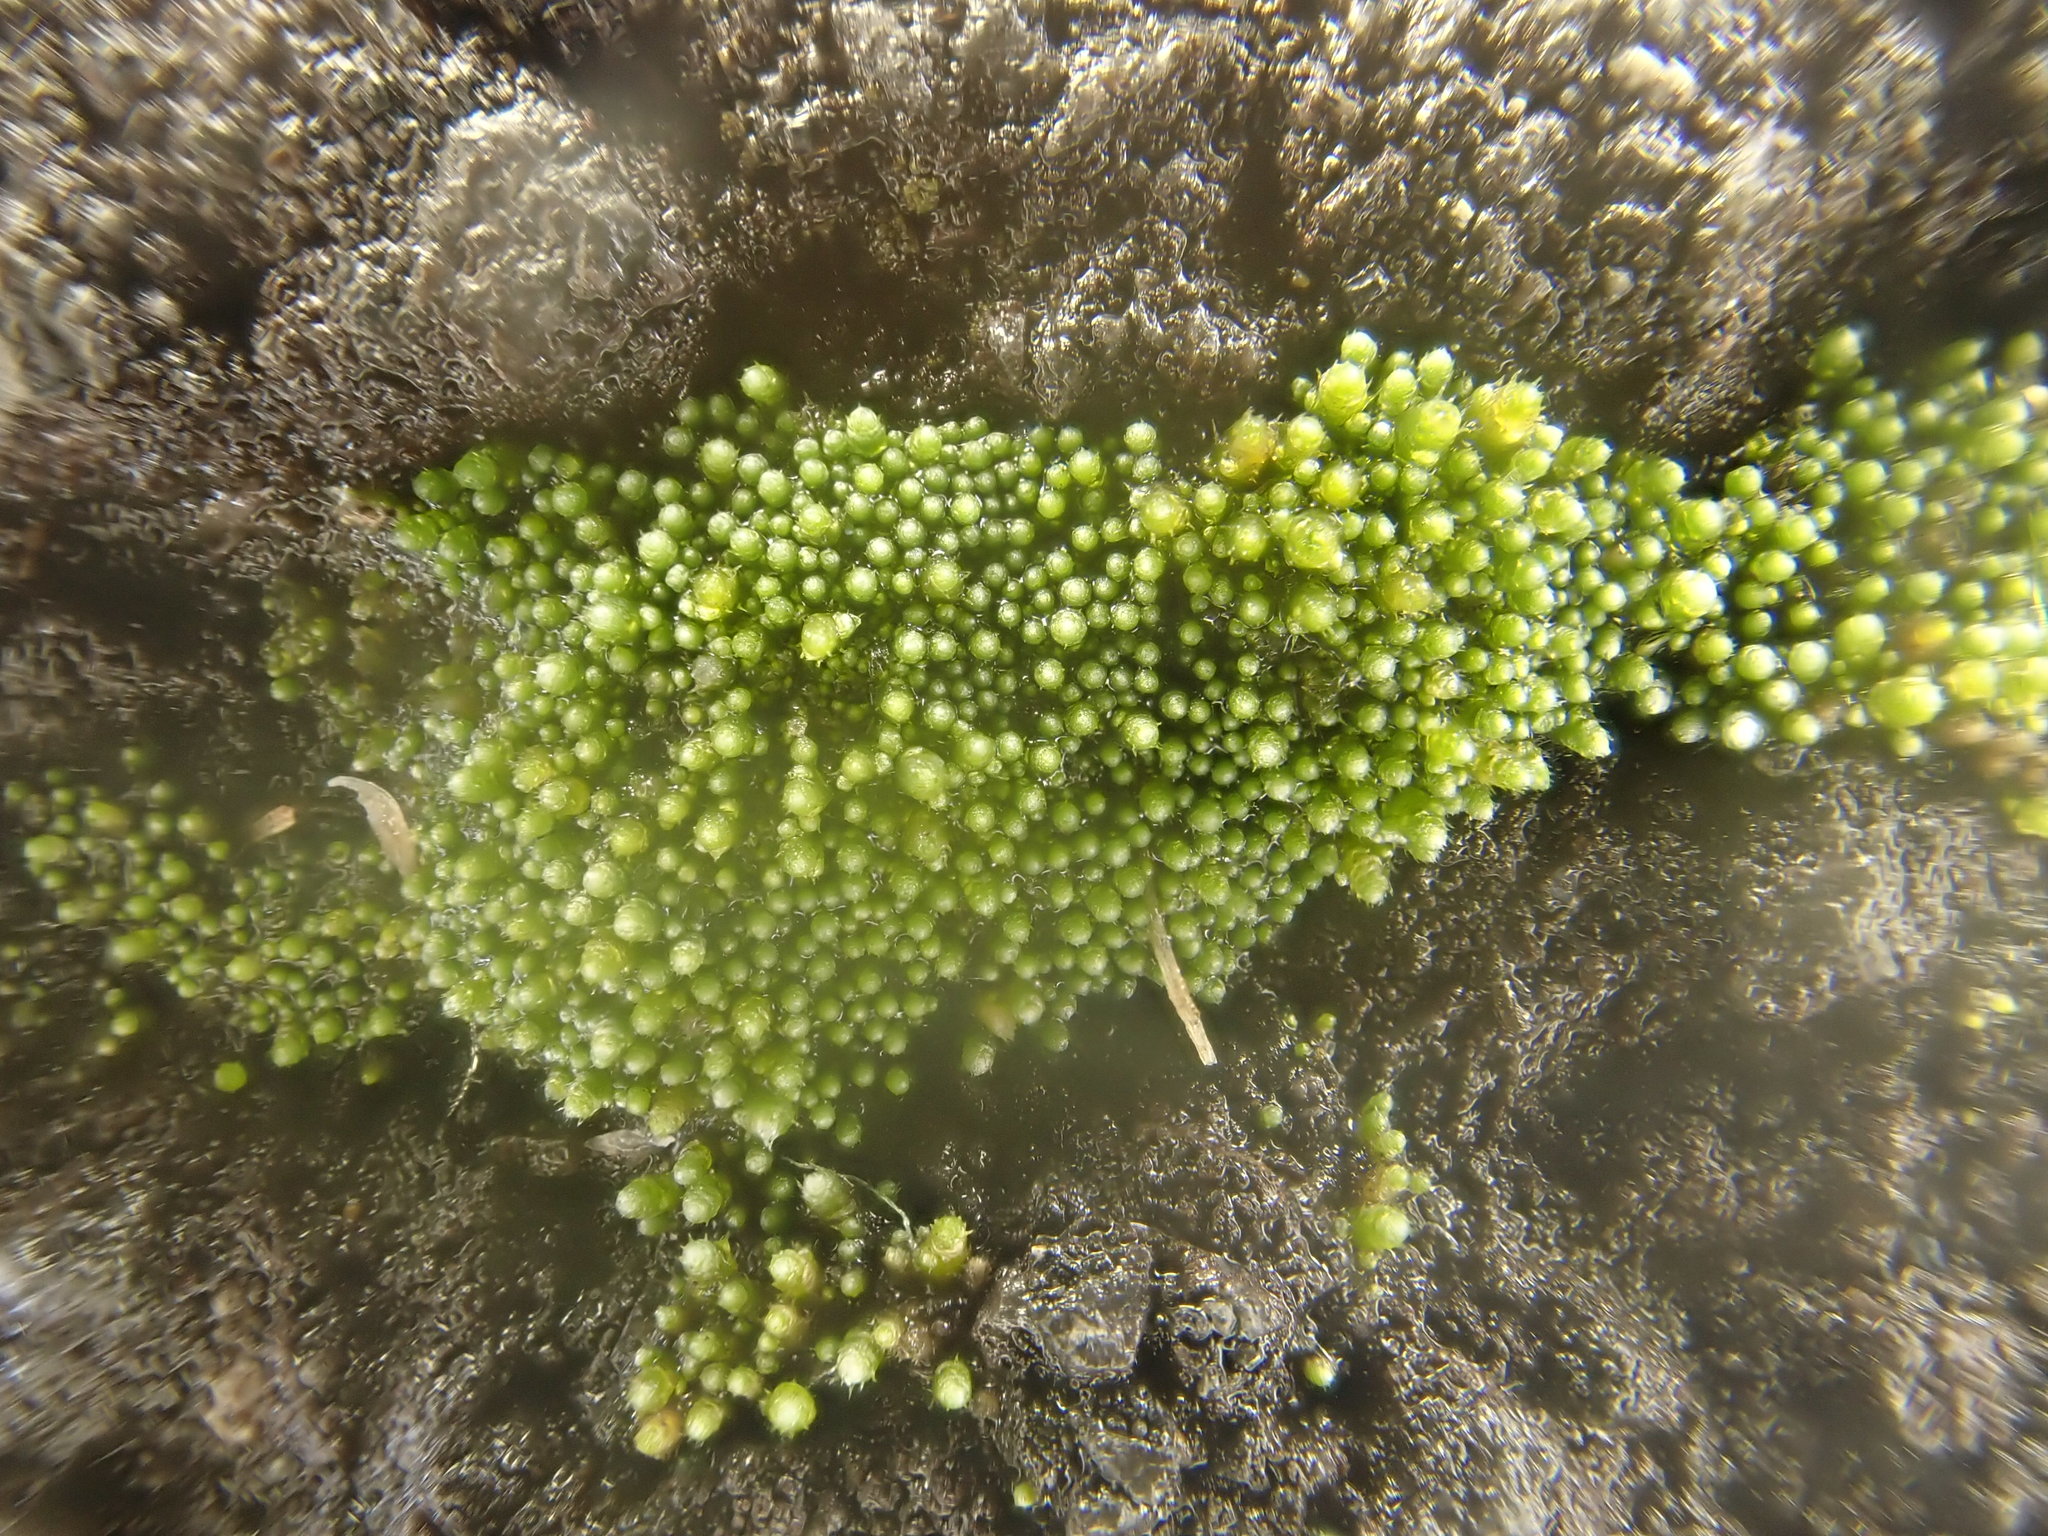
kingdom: Plantae
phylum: Bryophyta
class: Bryopsida
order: Bryales
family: Bryaceae
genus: Bryum
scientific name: Bryum argenteum
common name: Silver-moss
